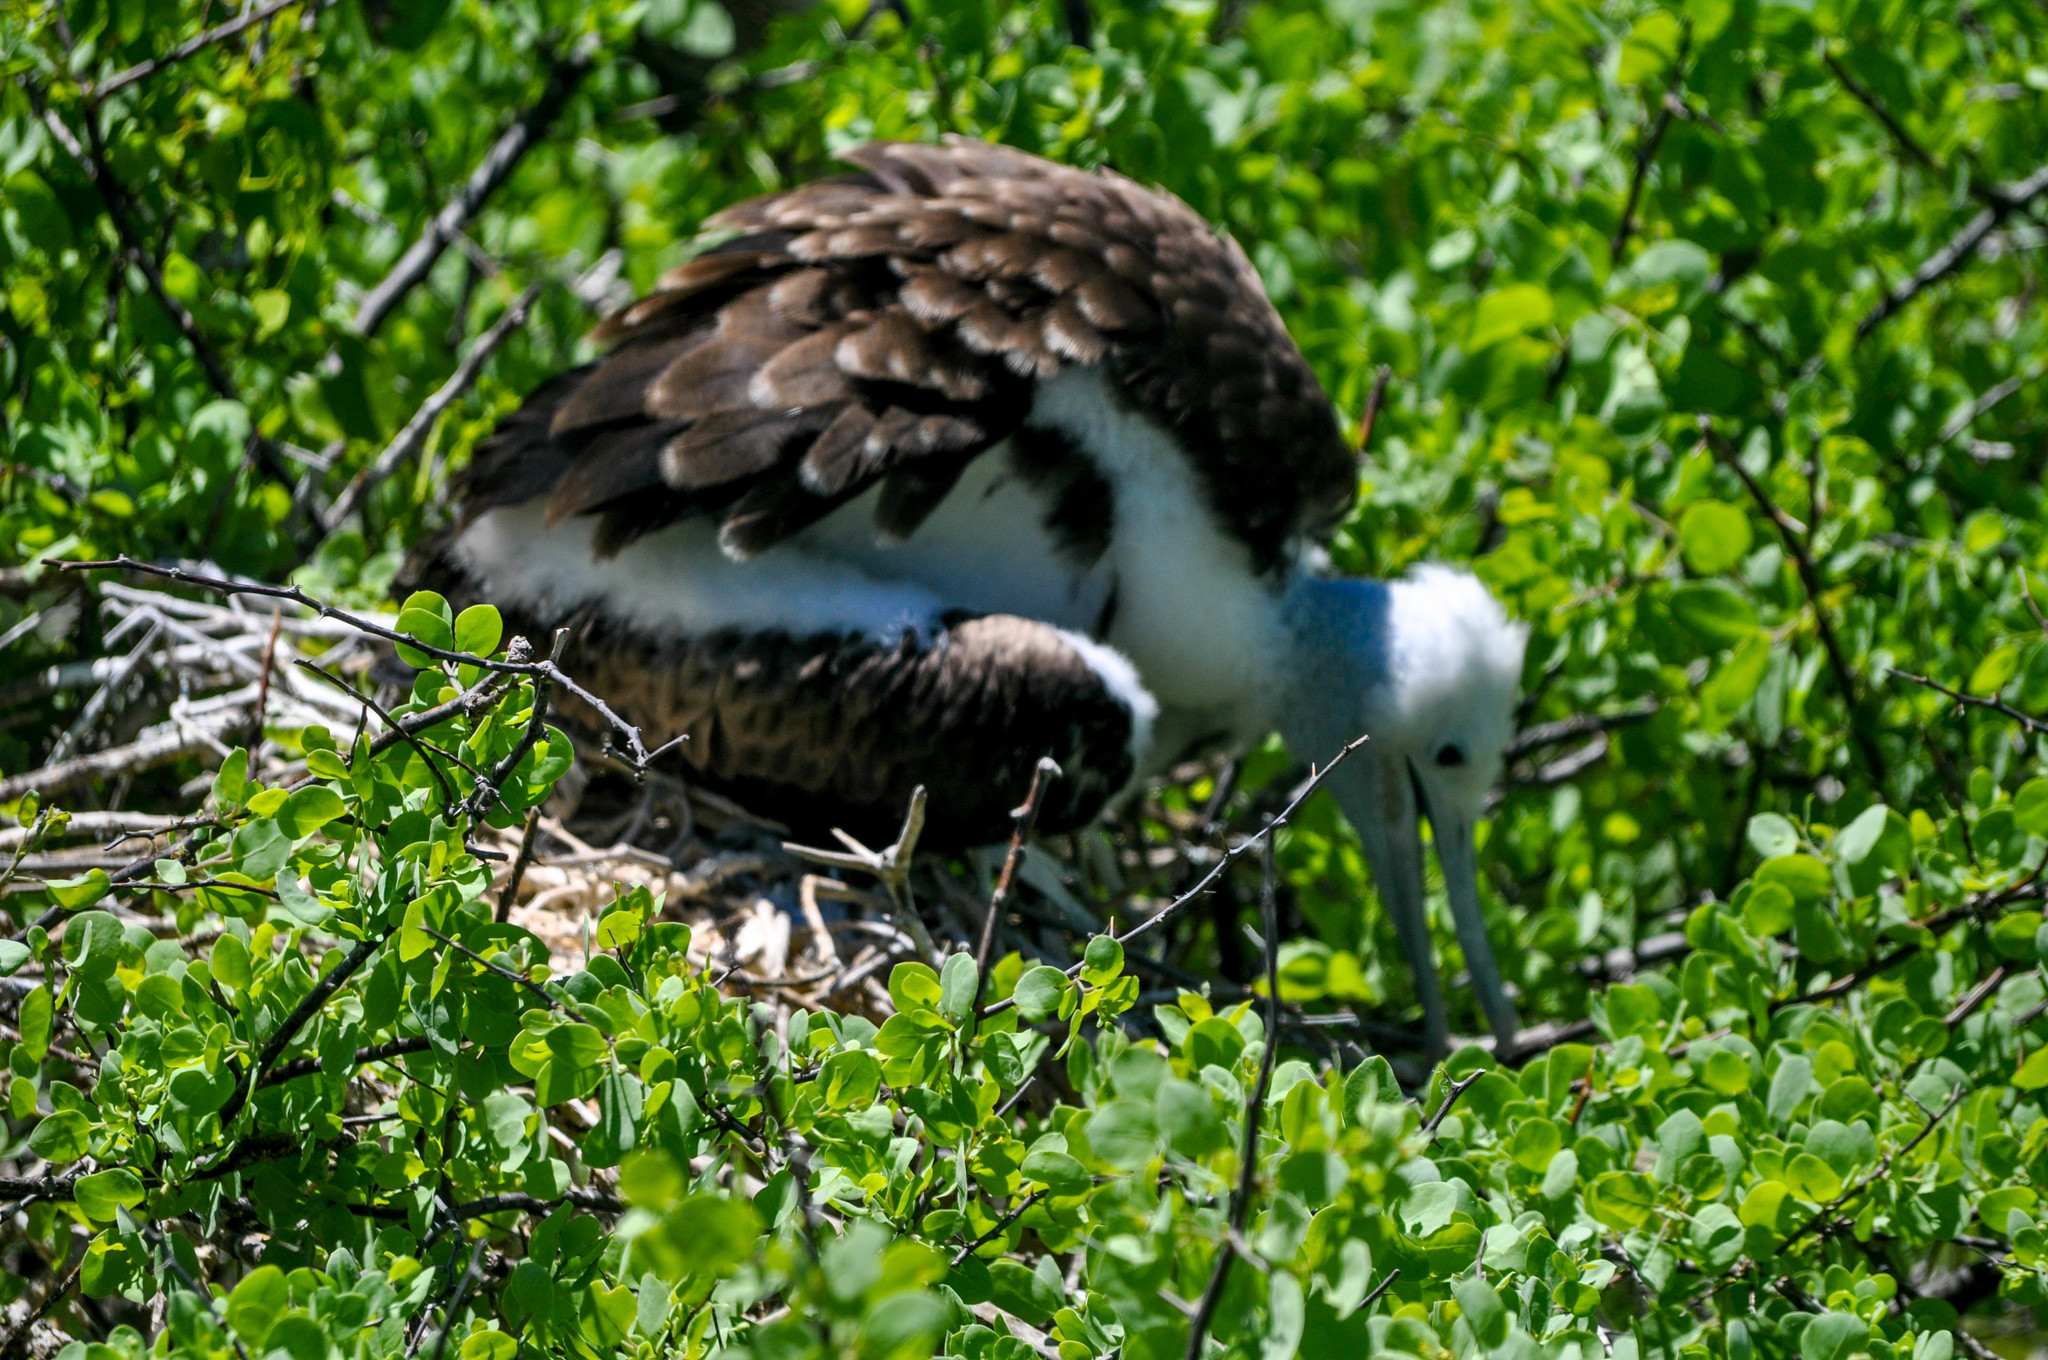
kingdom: Animalia
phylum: Chordata
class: Aves
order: Suliformes
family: Fregatidae
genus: Fregata
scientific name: Fregata magnificens
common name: Magnificent frigatebird
